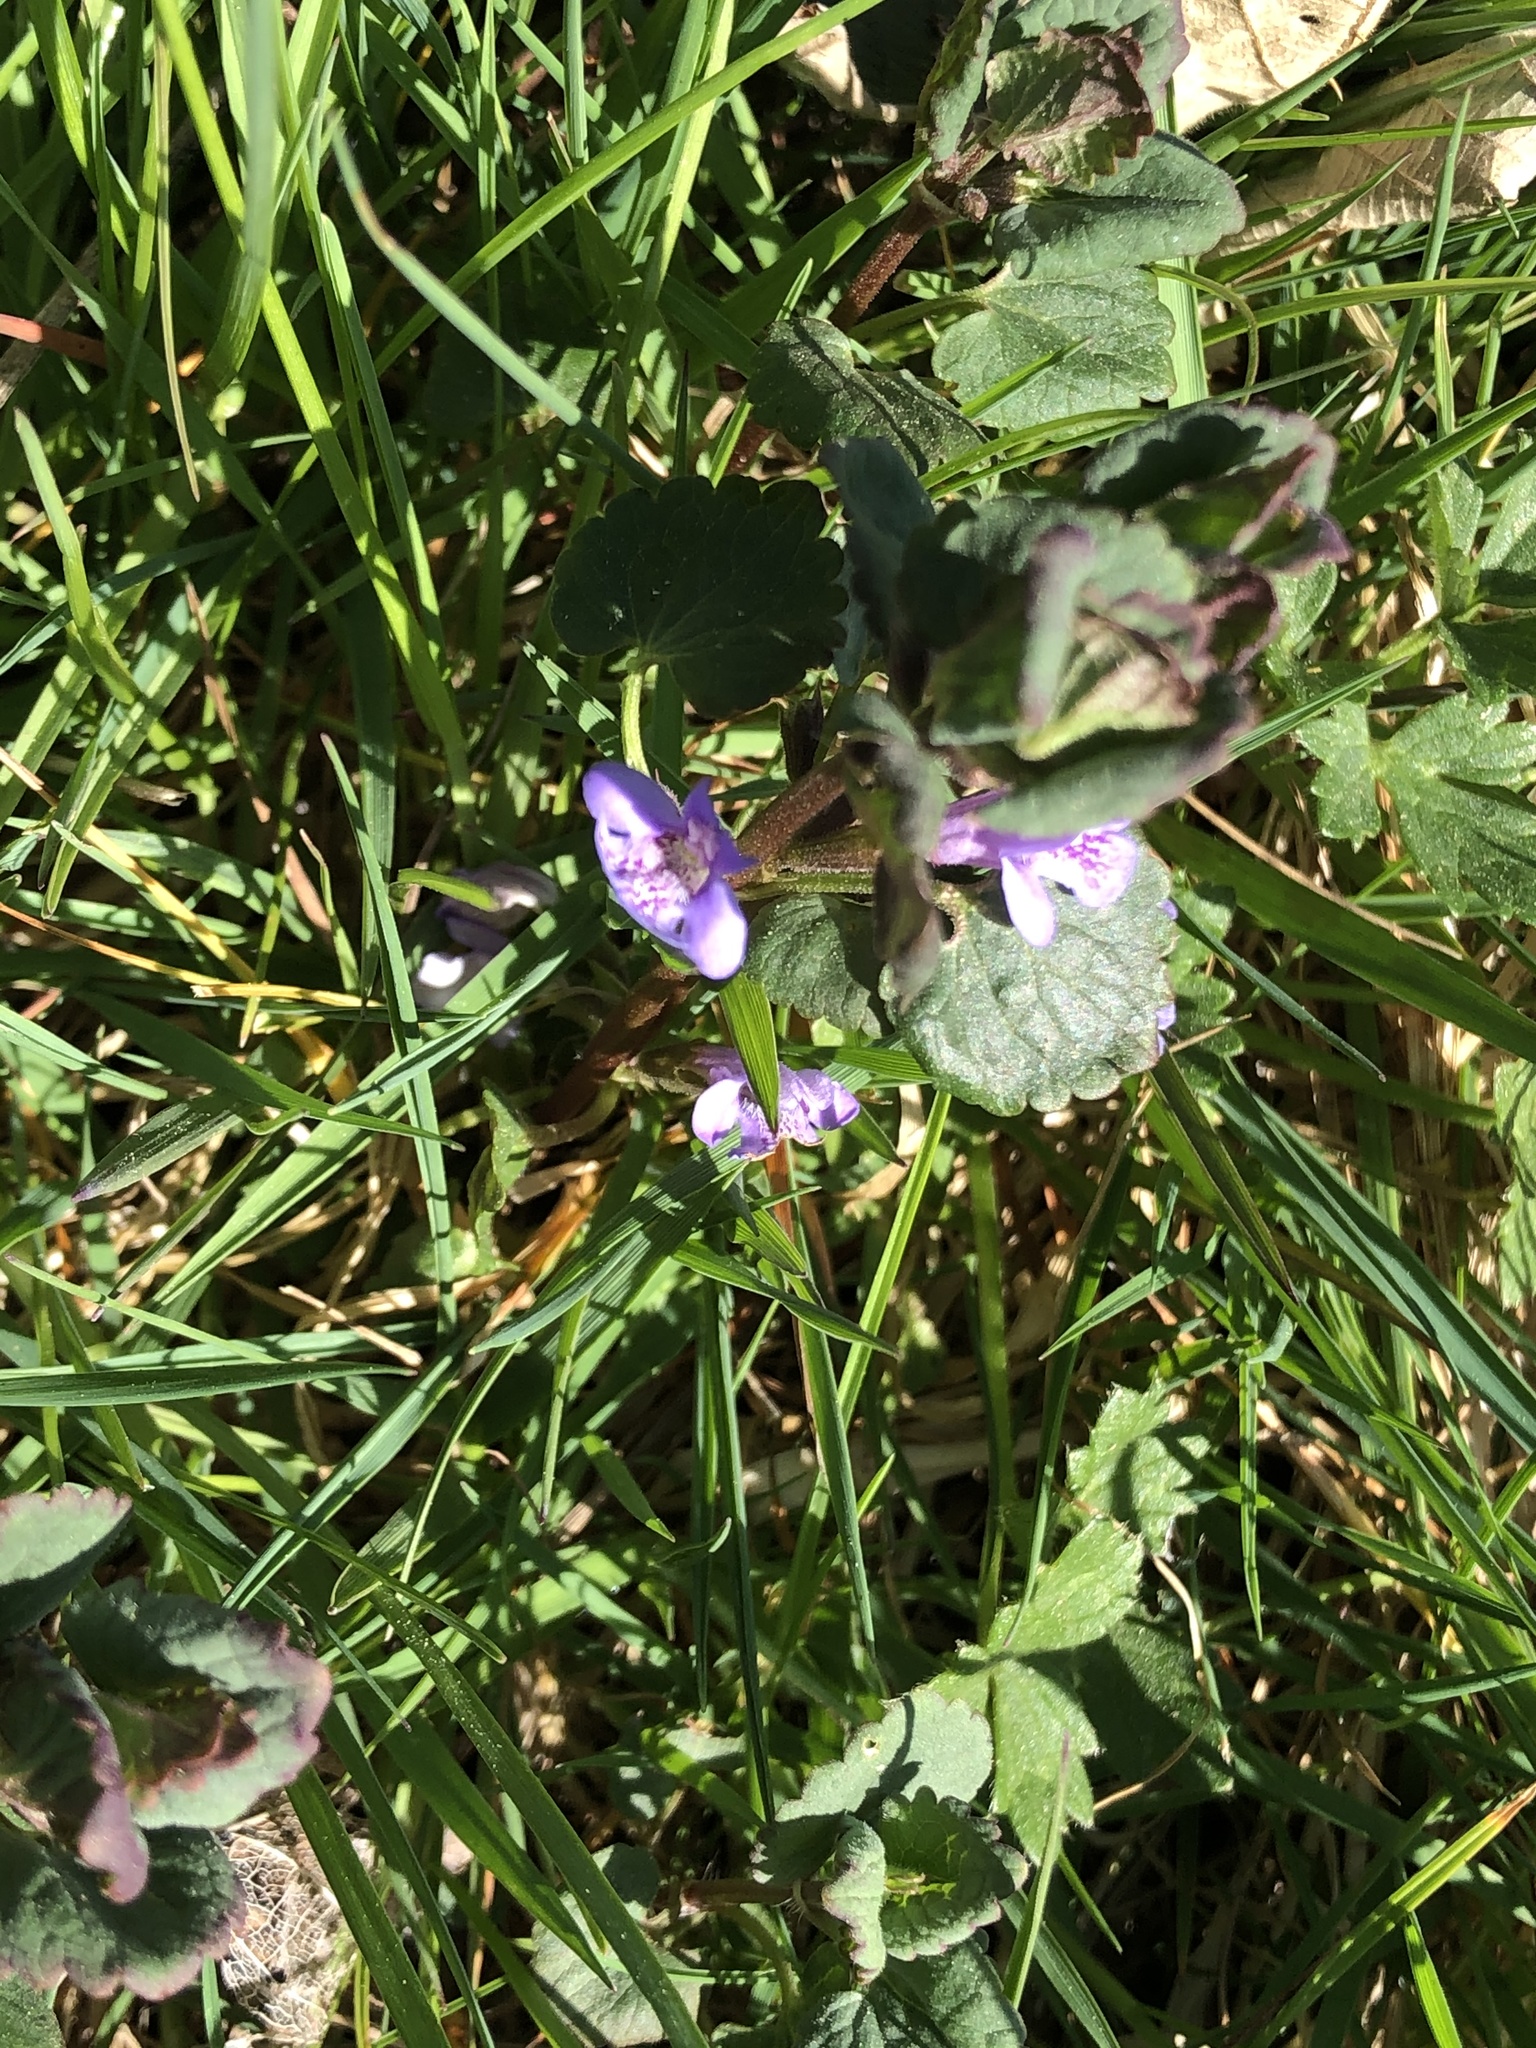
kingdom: Plantae
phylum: Tracheophyta
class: Magnoliopsida
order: Lamiales
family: Lamiaceae
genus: Glechoma
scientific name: Glechoma hederacea
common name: Ground ivy
